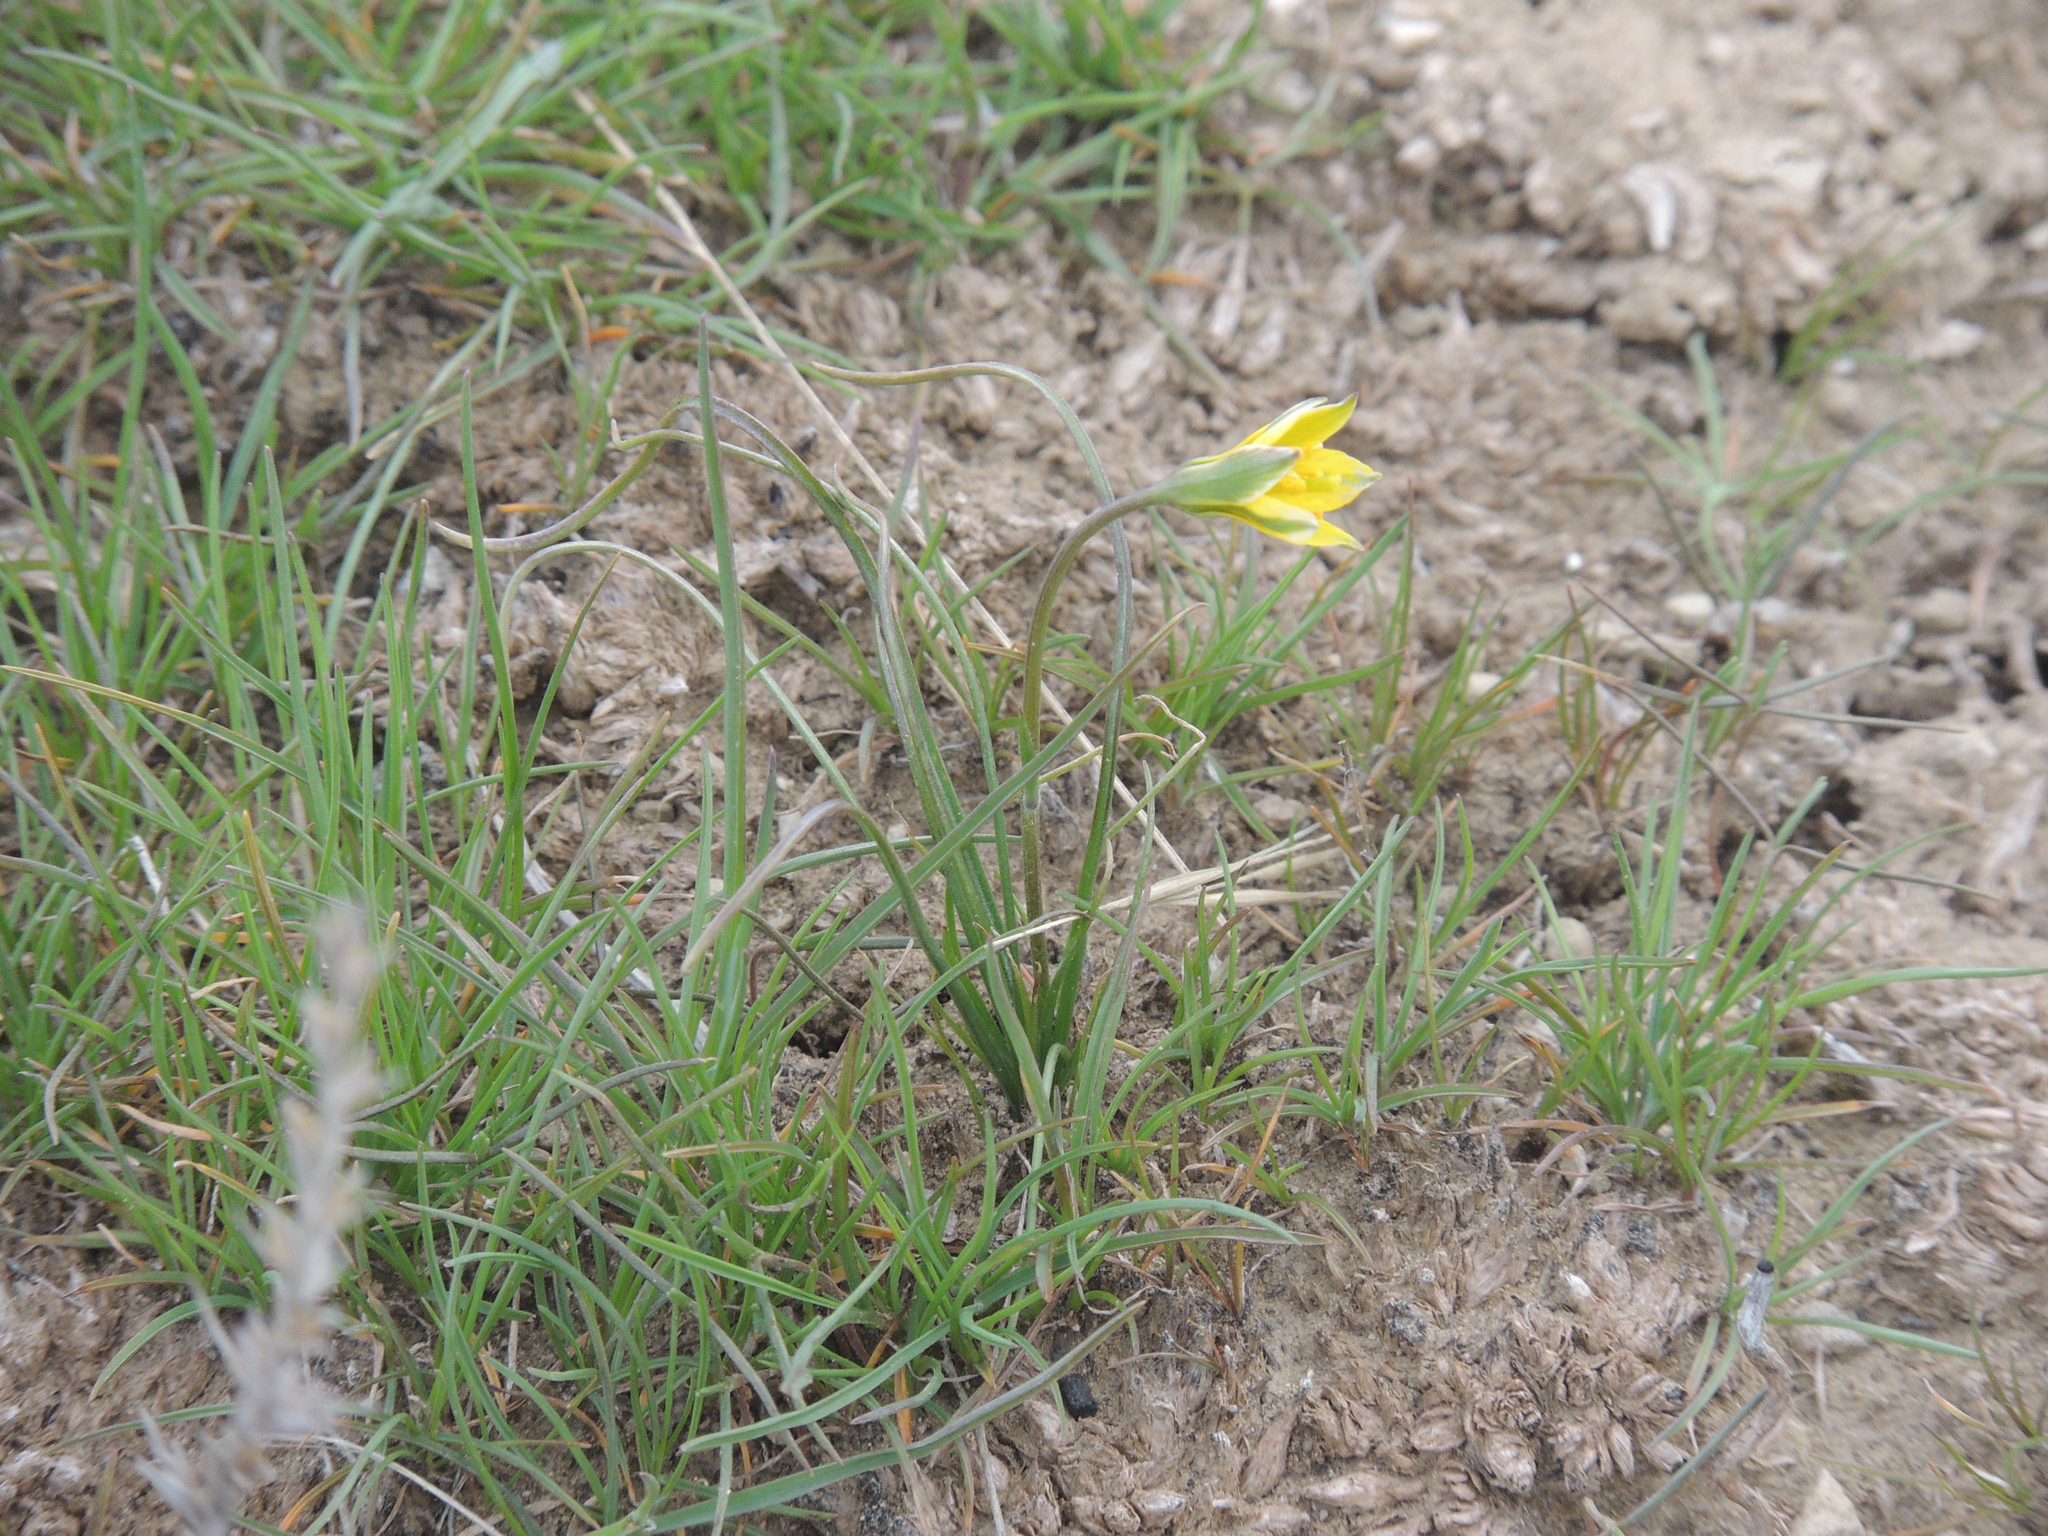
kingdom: Plantae
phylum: Tracheophyta
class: Liliopsida
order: Liliales
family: Liliaceae
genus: Gagea
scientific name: Gagea bulbifera
